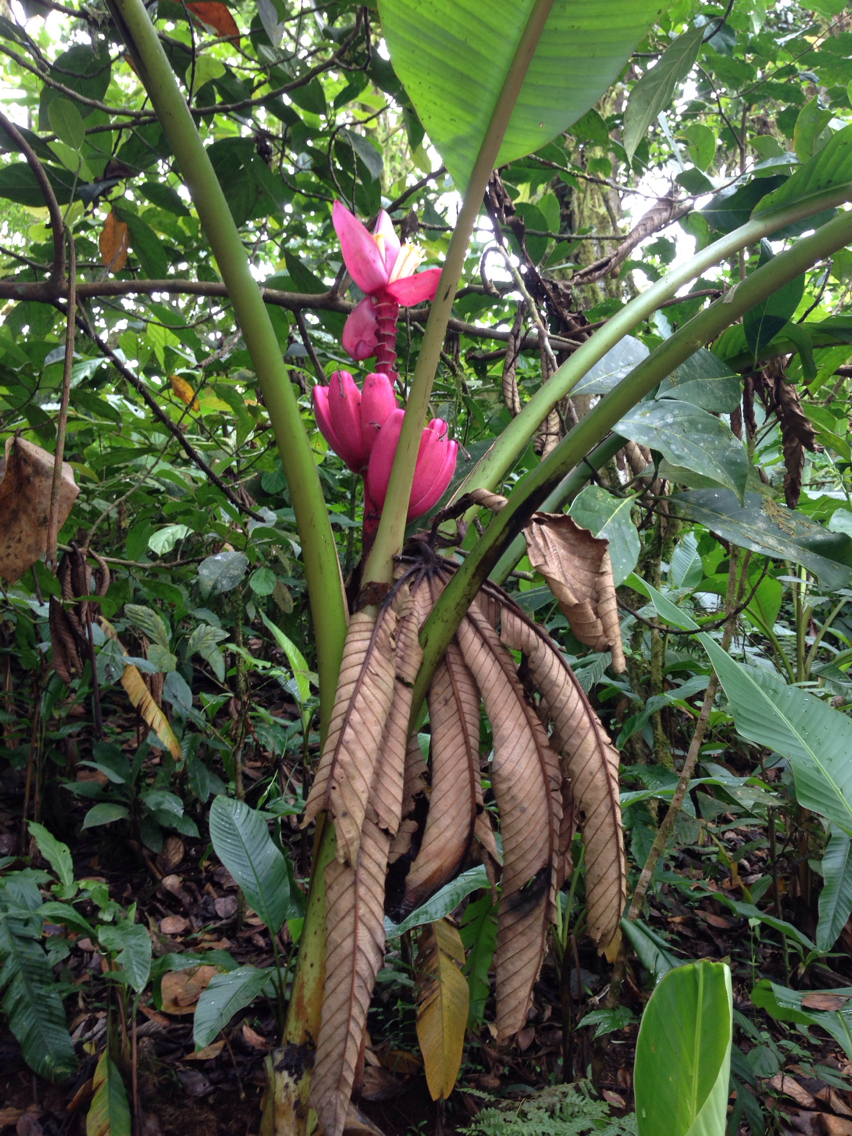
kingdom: Plantae
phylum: Tracheophyta
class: Liliopsida
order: Zingiberales
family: Musaceae
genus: Musa
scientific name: Musa velutina
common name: Pink velvet banana
